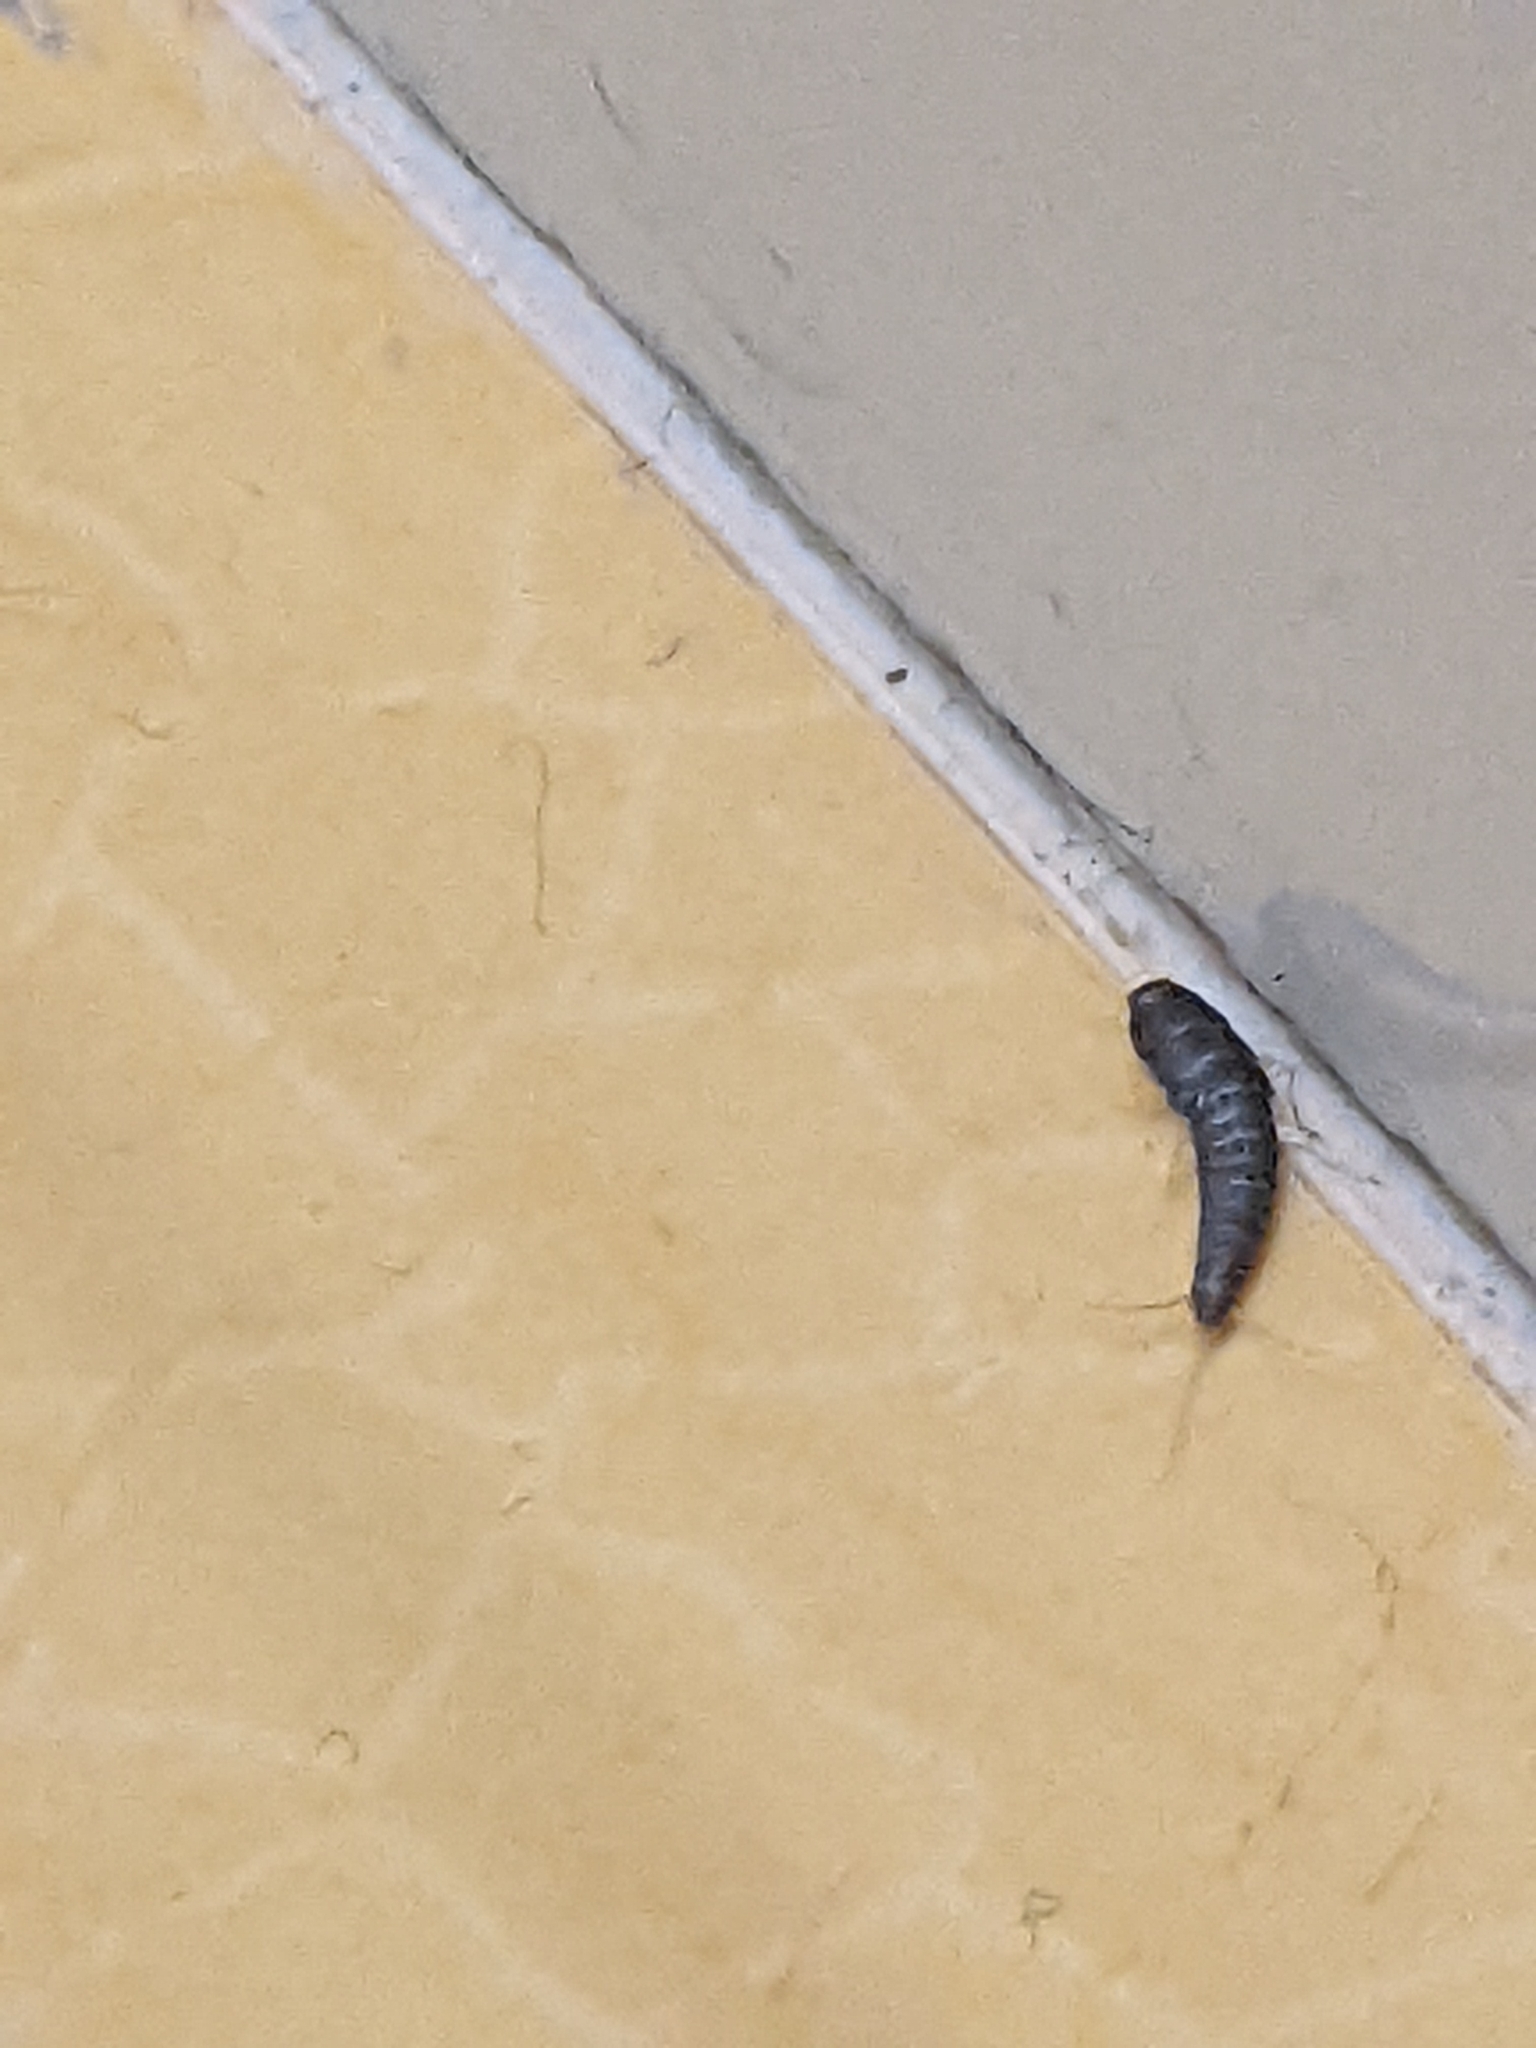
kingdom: Animalia
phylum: Arthropoda
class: Insecta
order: Zygentoma
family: Lepismatidae
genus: Lepisma
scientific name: Lepisma saccharinum
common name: Silverfish
